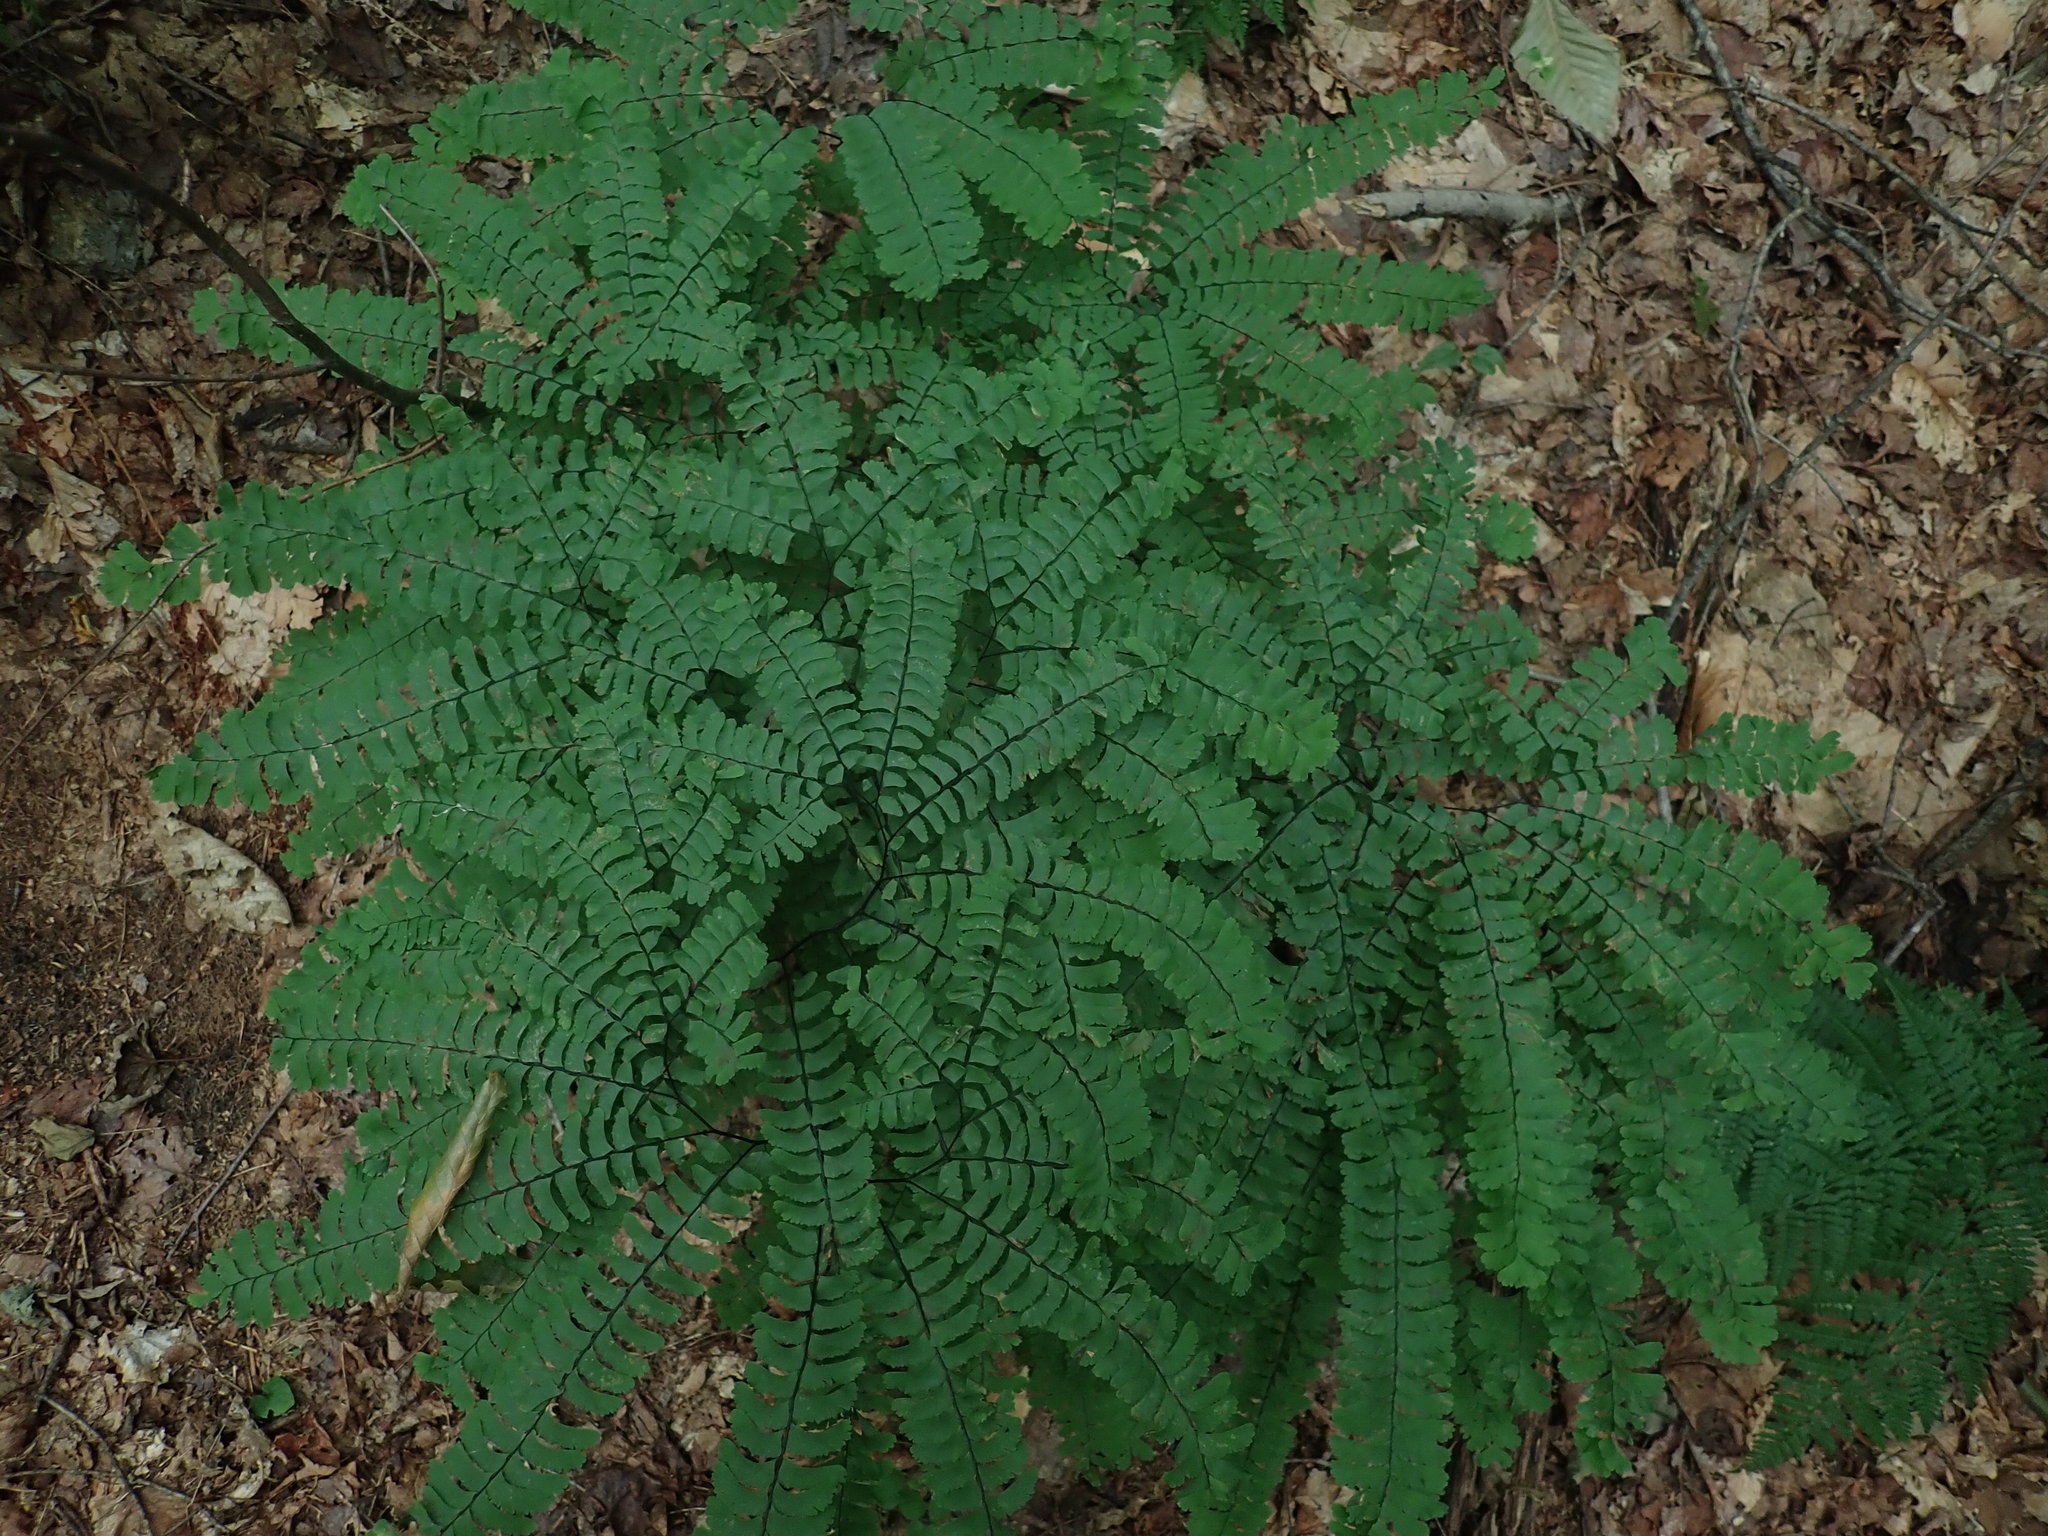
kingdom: Plantae
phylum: Tracheophyta
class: Polypodiopsida
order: Polypodiales
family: Pteridaceae
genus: Adiantum
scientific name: Adiantum pedatum
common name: Five-finger fern
